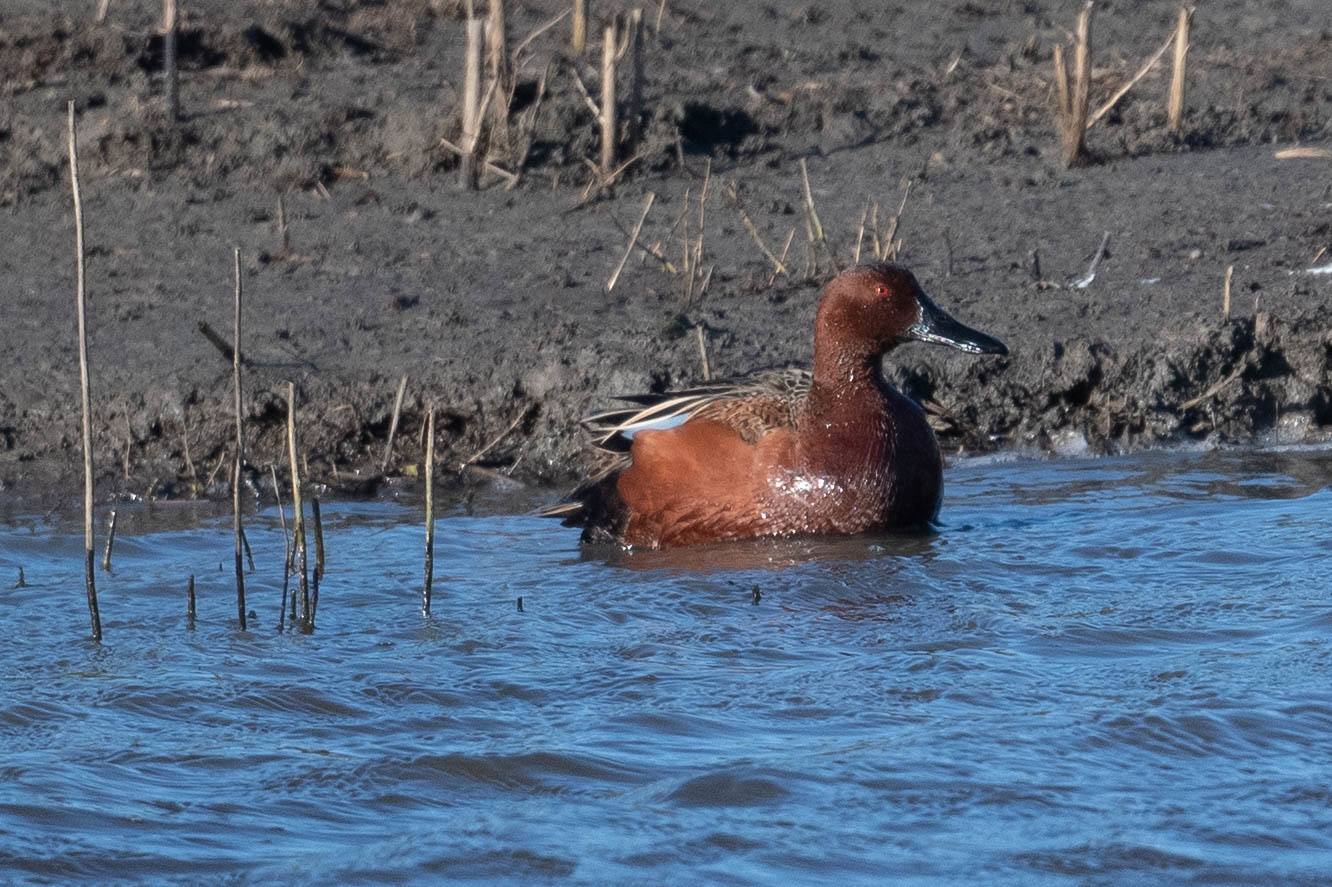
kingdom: Animalia
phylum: Chordata
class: Aves
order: Anseriformes
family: Anatidae
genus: Spatula
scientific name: Spatula cyanoptera
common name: Cinnamon teal
